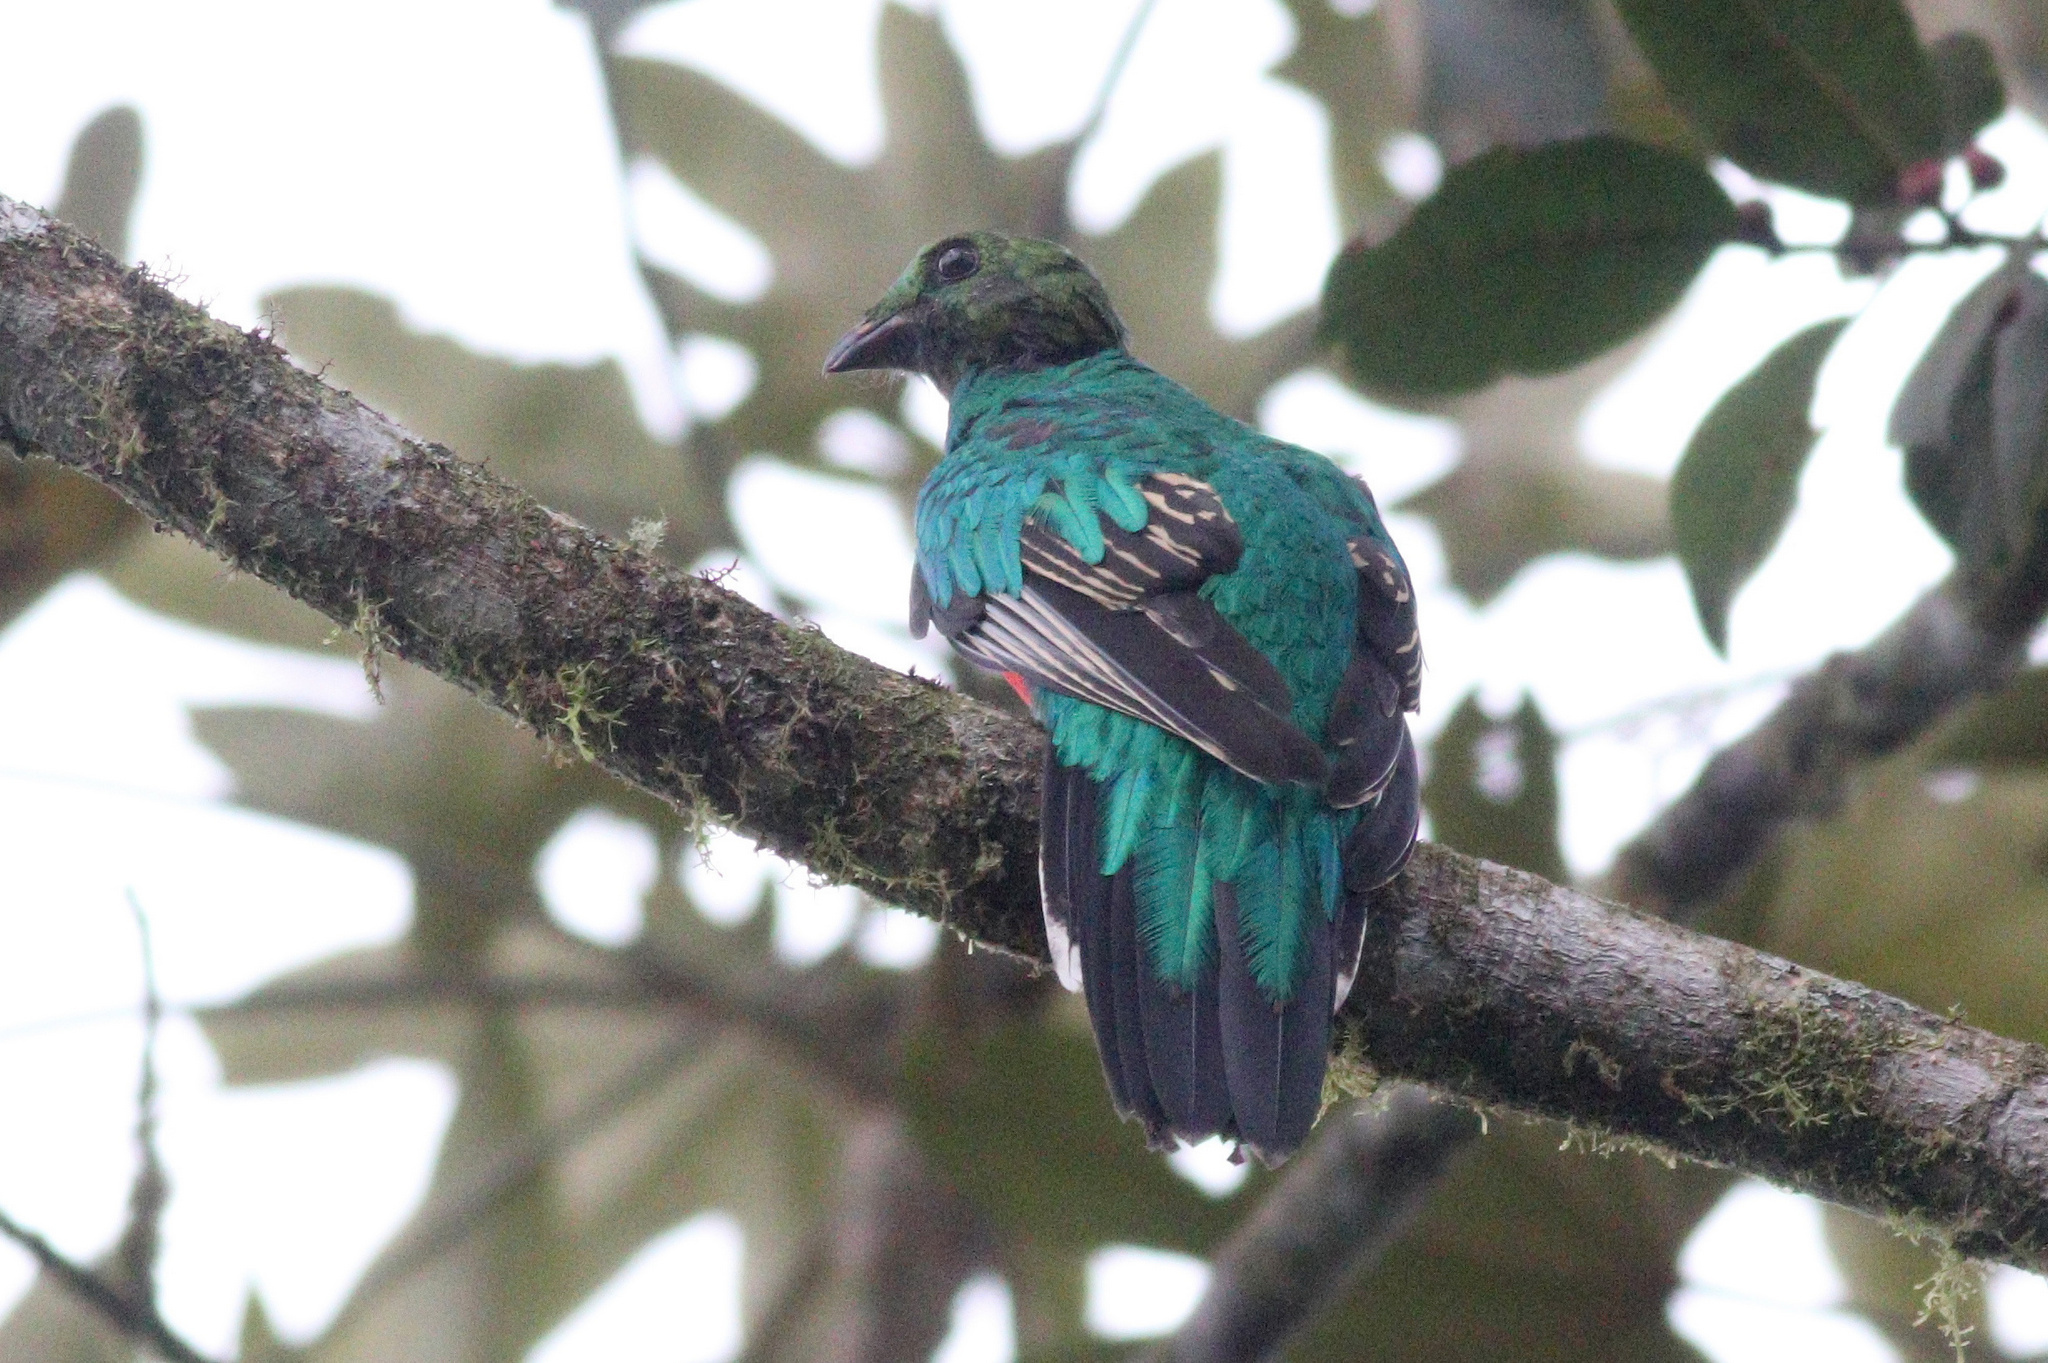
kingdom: Animalia
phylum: Chordata
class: Aves
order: Trogoniformes
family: Trogonidae
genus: Pharomachrus
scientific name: Pharomachrus auriceps
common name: Golden-headed quetzal
